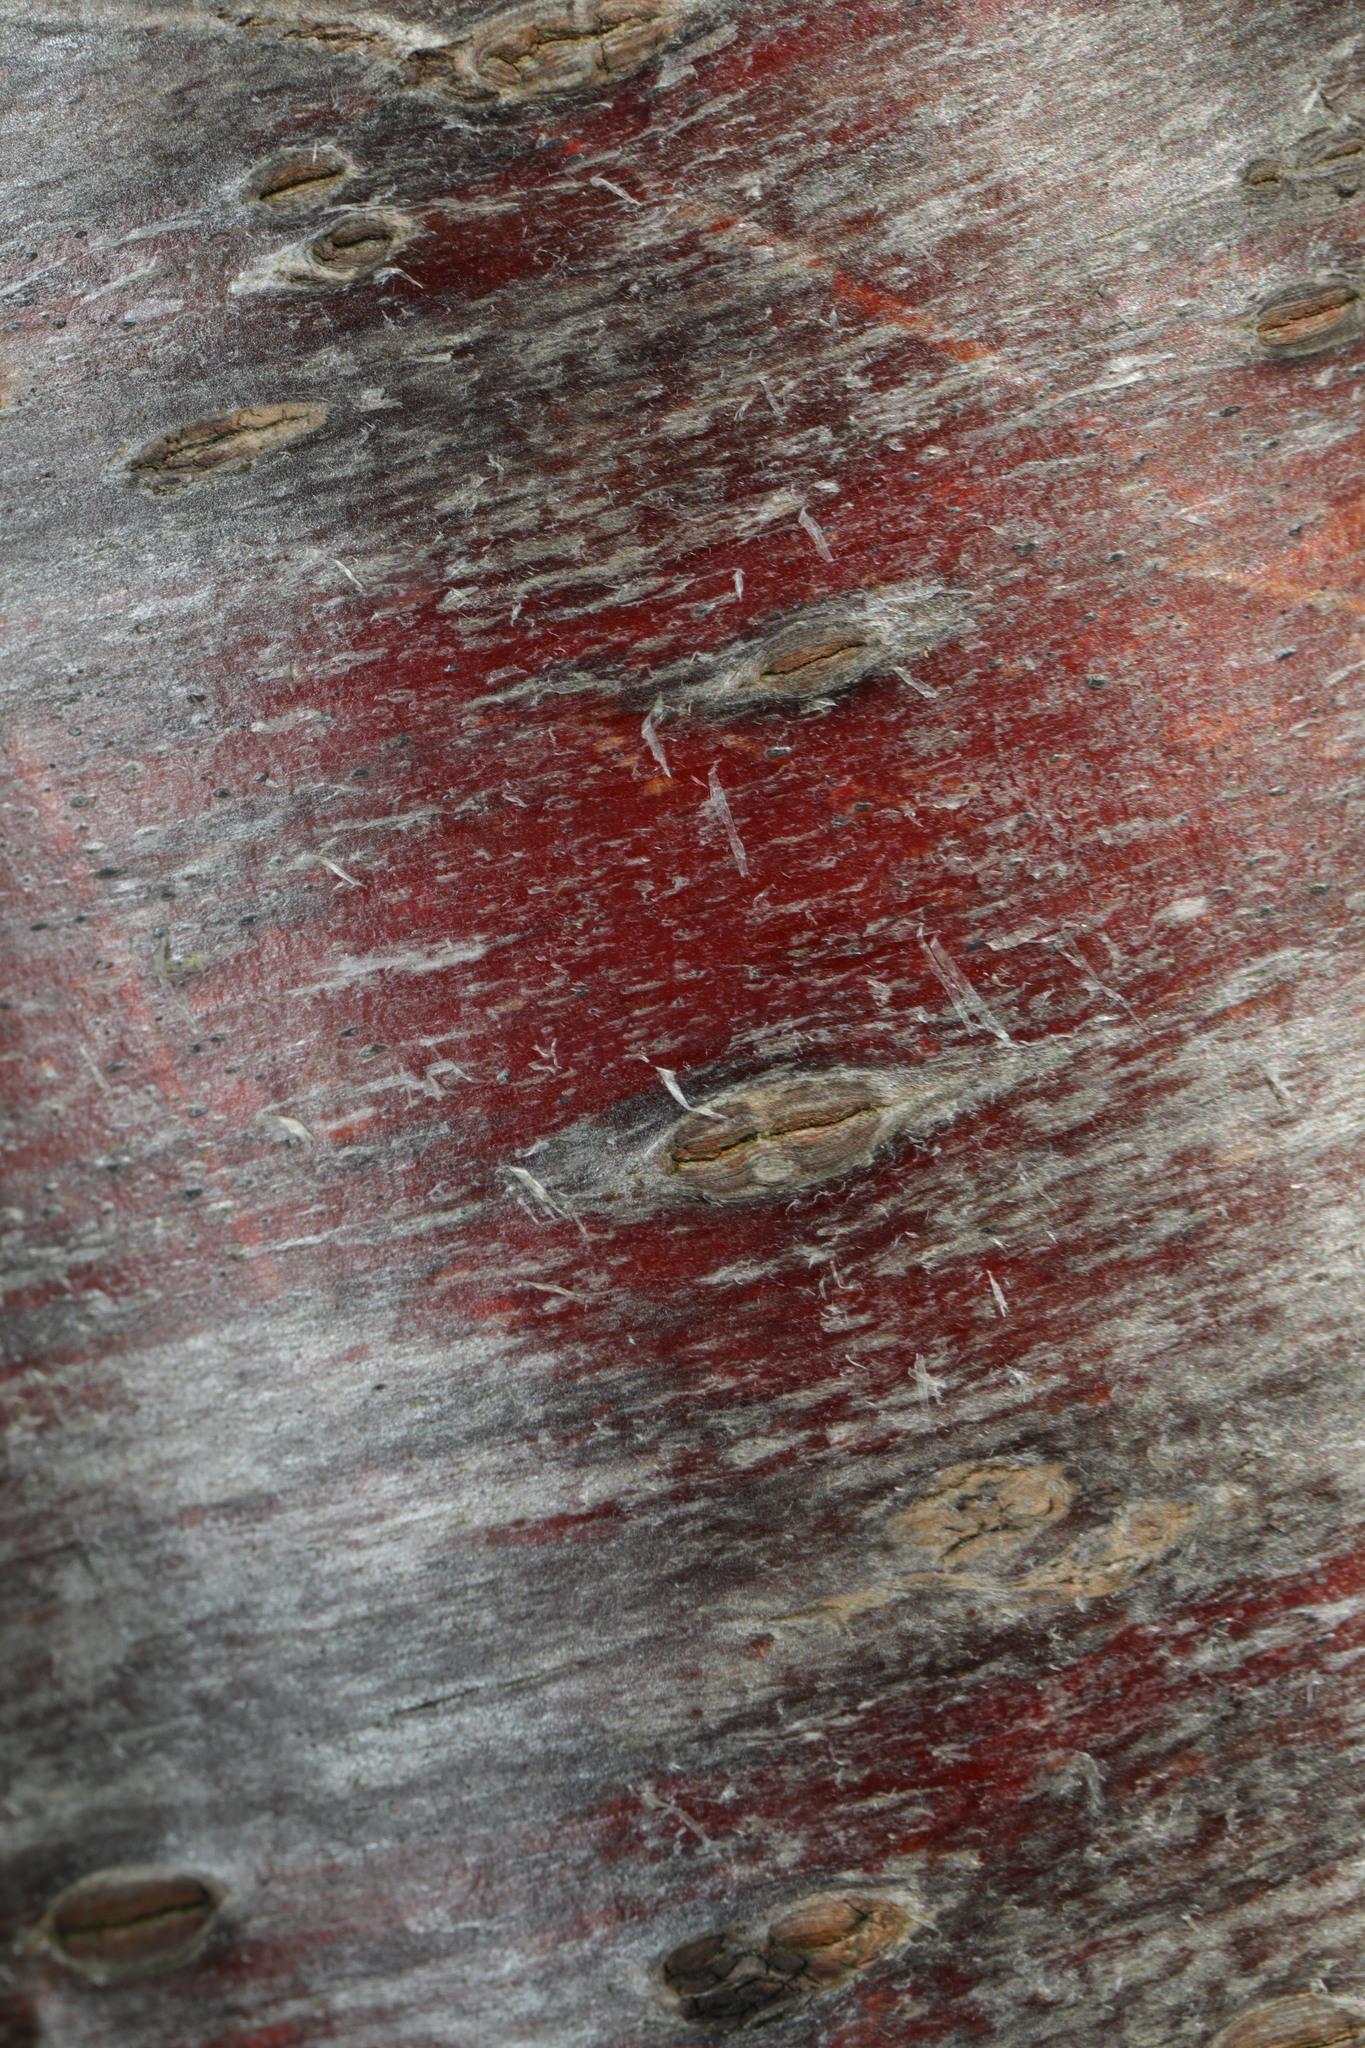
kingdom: Plantae
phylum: Tracheophyta
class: Magnoliopsida
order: Rosales
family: Rosaceae
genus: Prunus
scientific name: Prunus avium
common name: Sweet cherry
